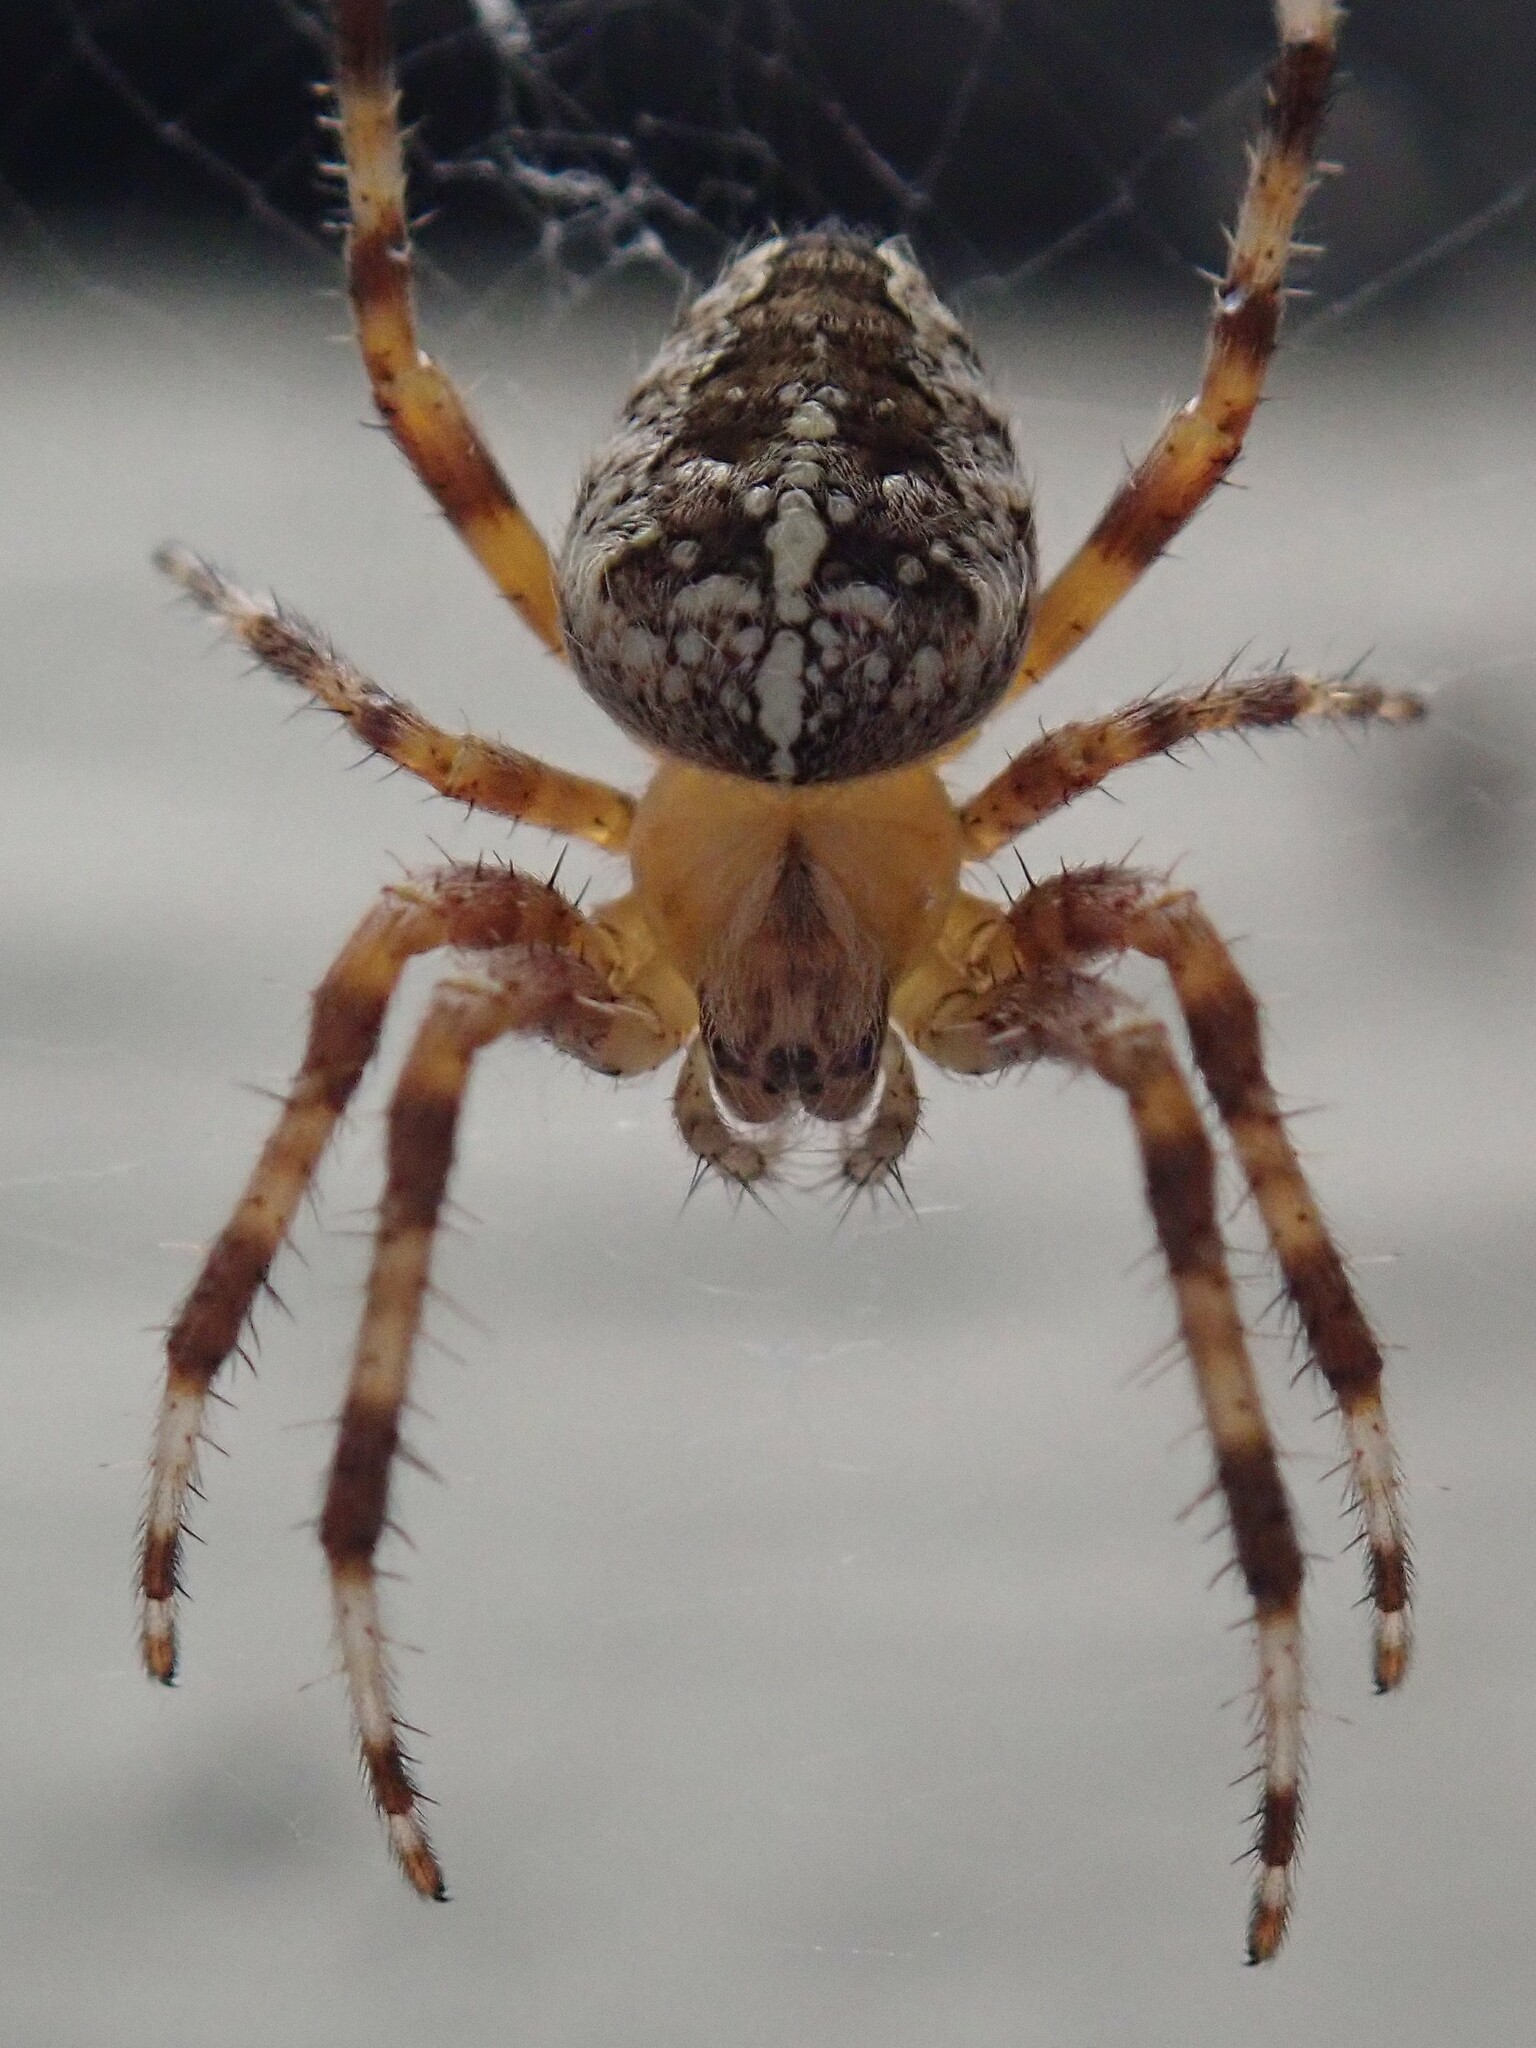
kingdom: Animalia
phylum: Arthropoda
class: Arachnida
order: Araneae
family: Araneidae
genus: Araneus
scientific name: Araneus diadematus
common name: Cross orbweaver
